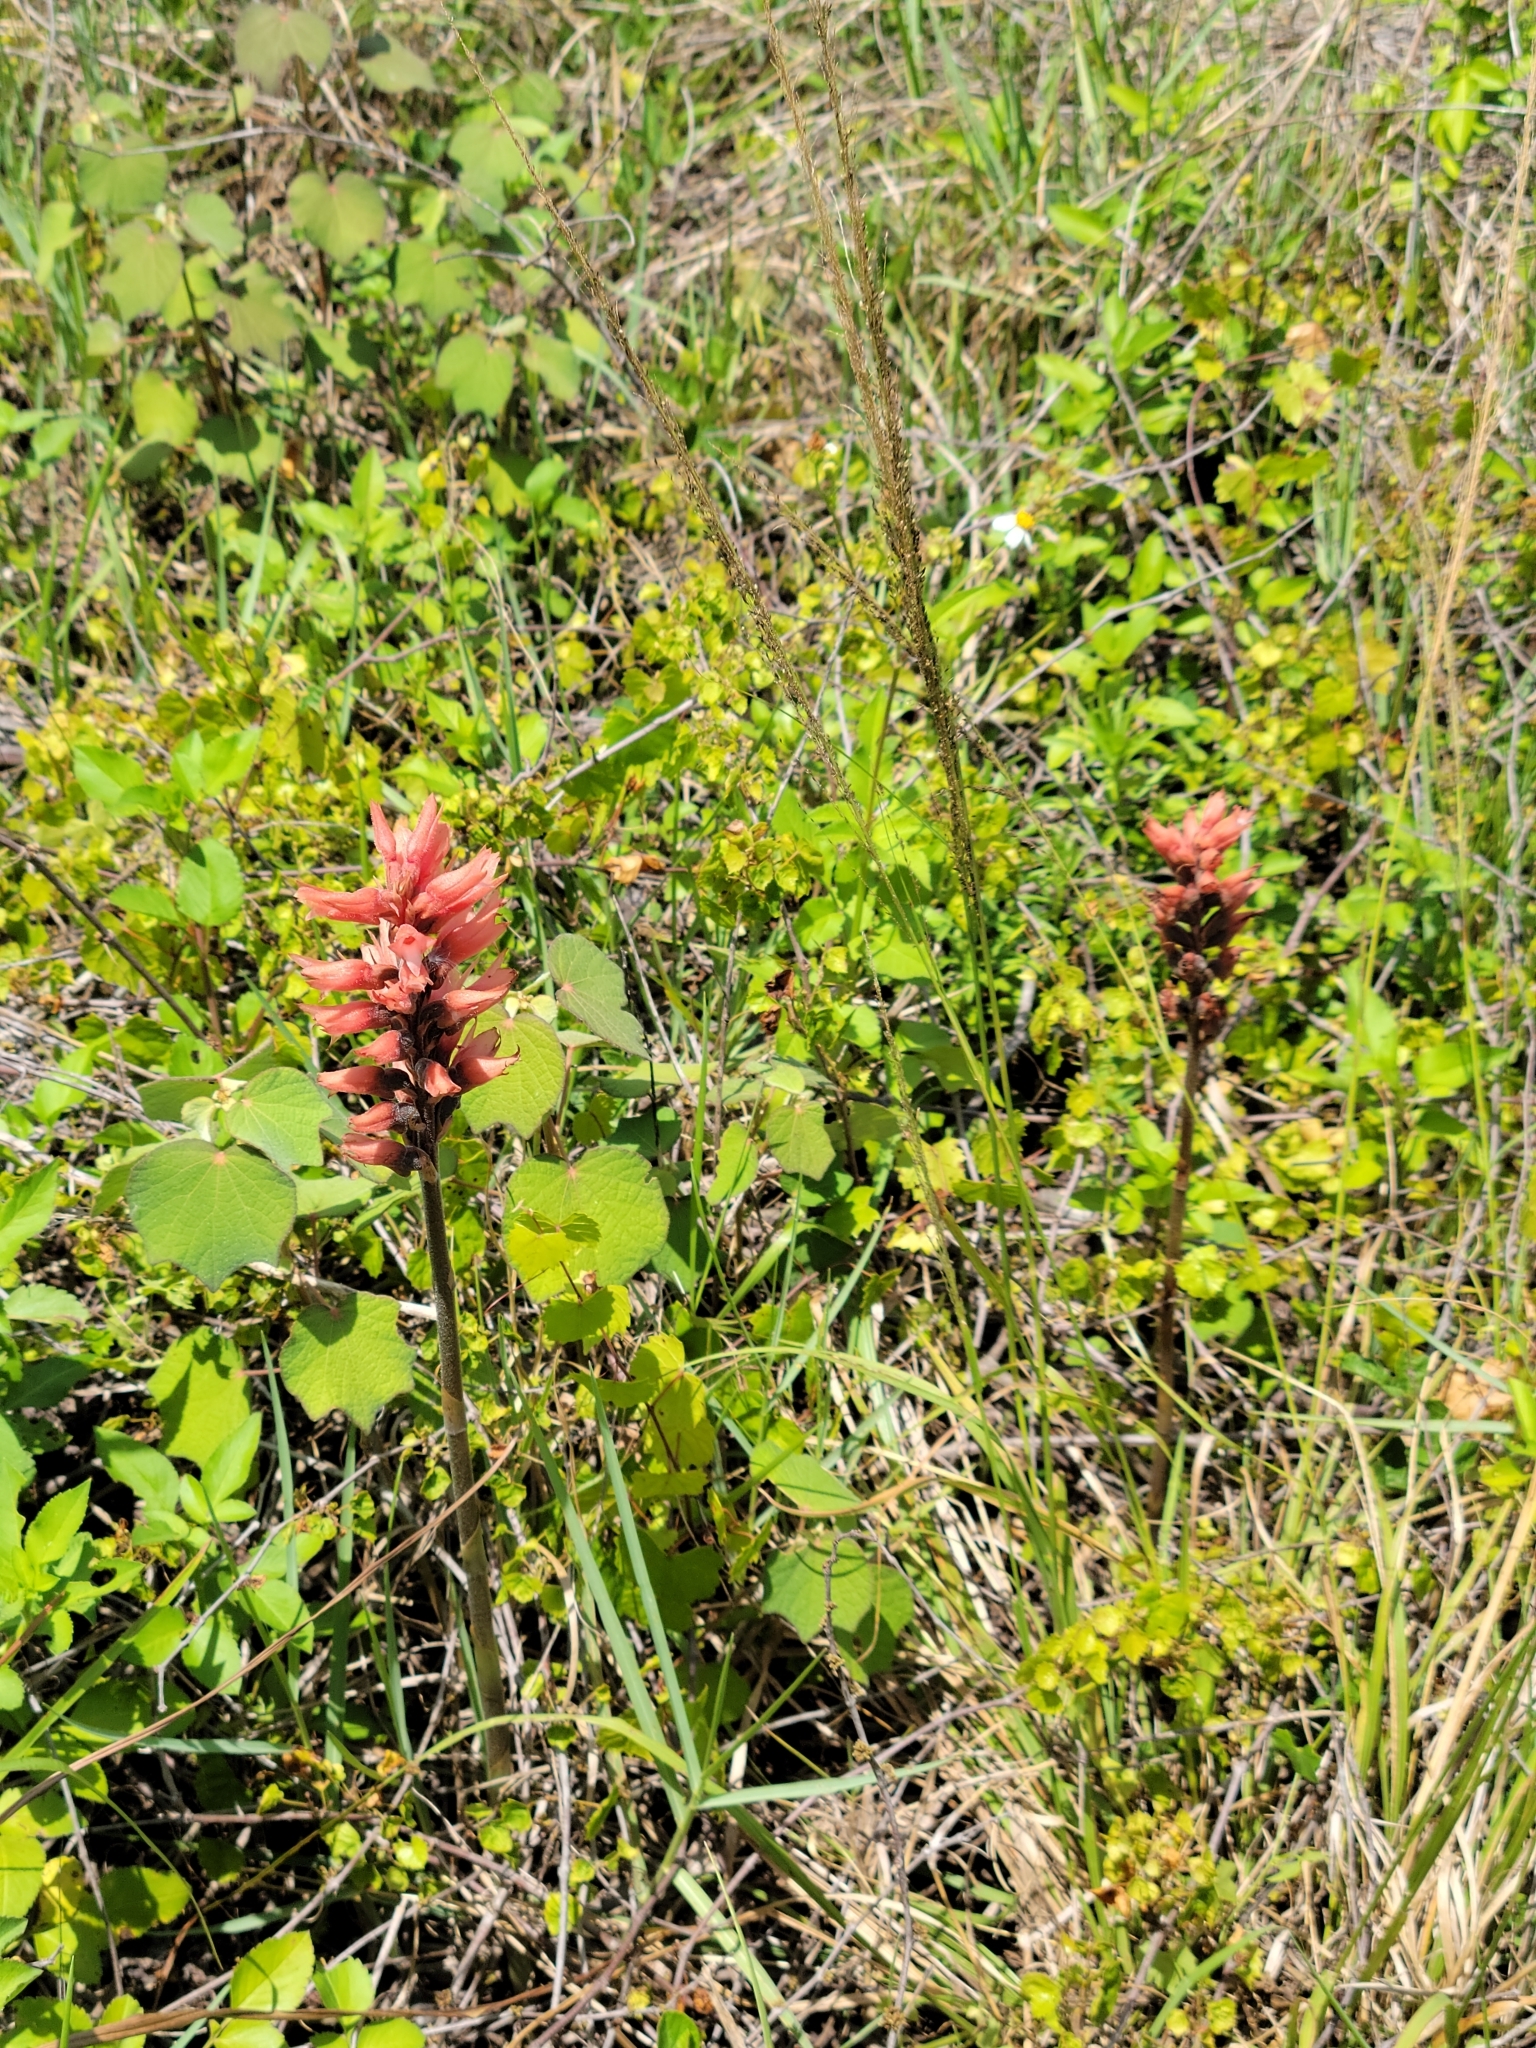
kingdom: Plantae
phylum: Tracheophyta
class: Liliopsida
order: Asparagales
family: Orchidaceae
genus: Sacoila
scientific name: Sacoila lanceolata
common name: Leafless beaked ladiestresses
